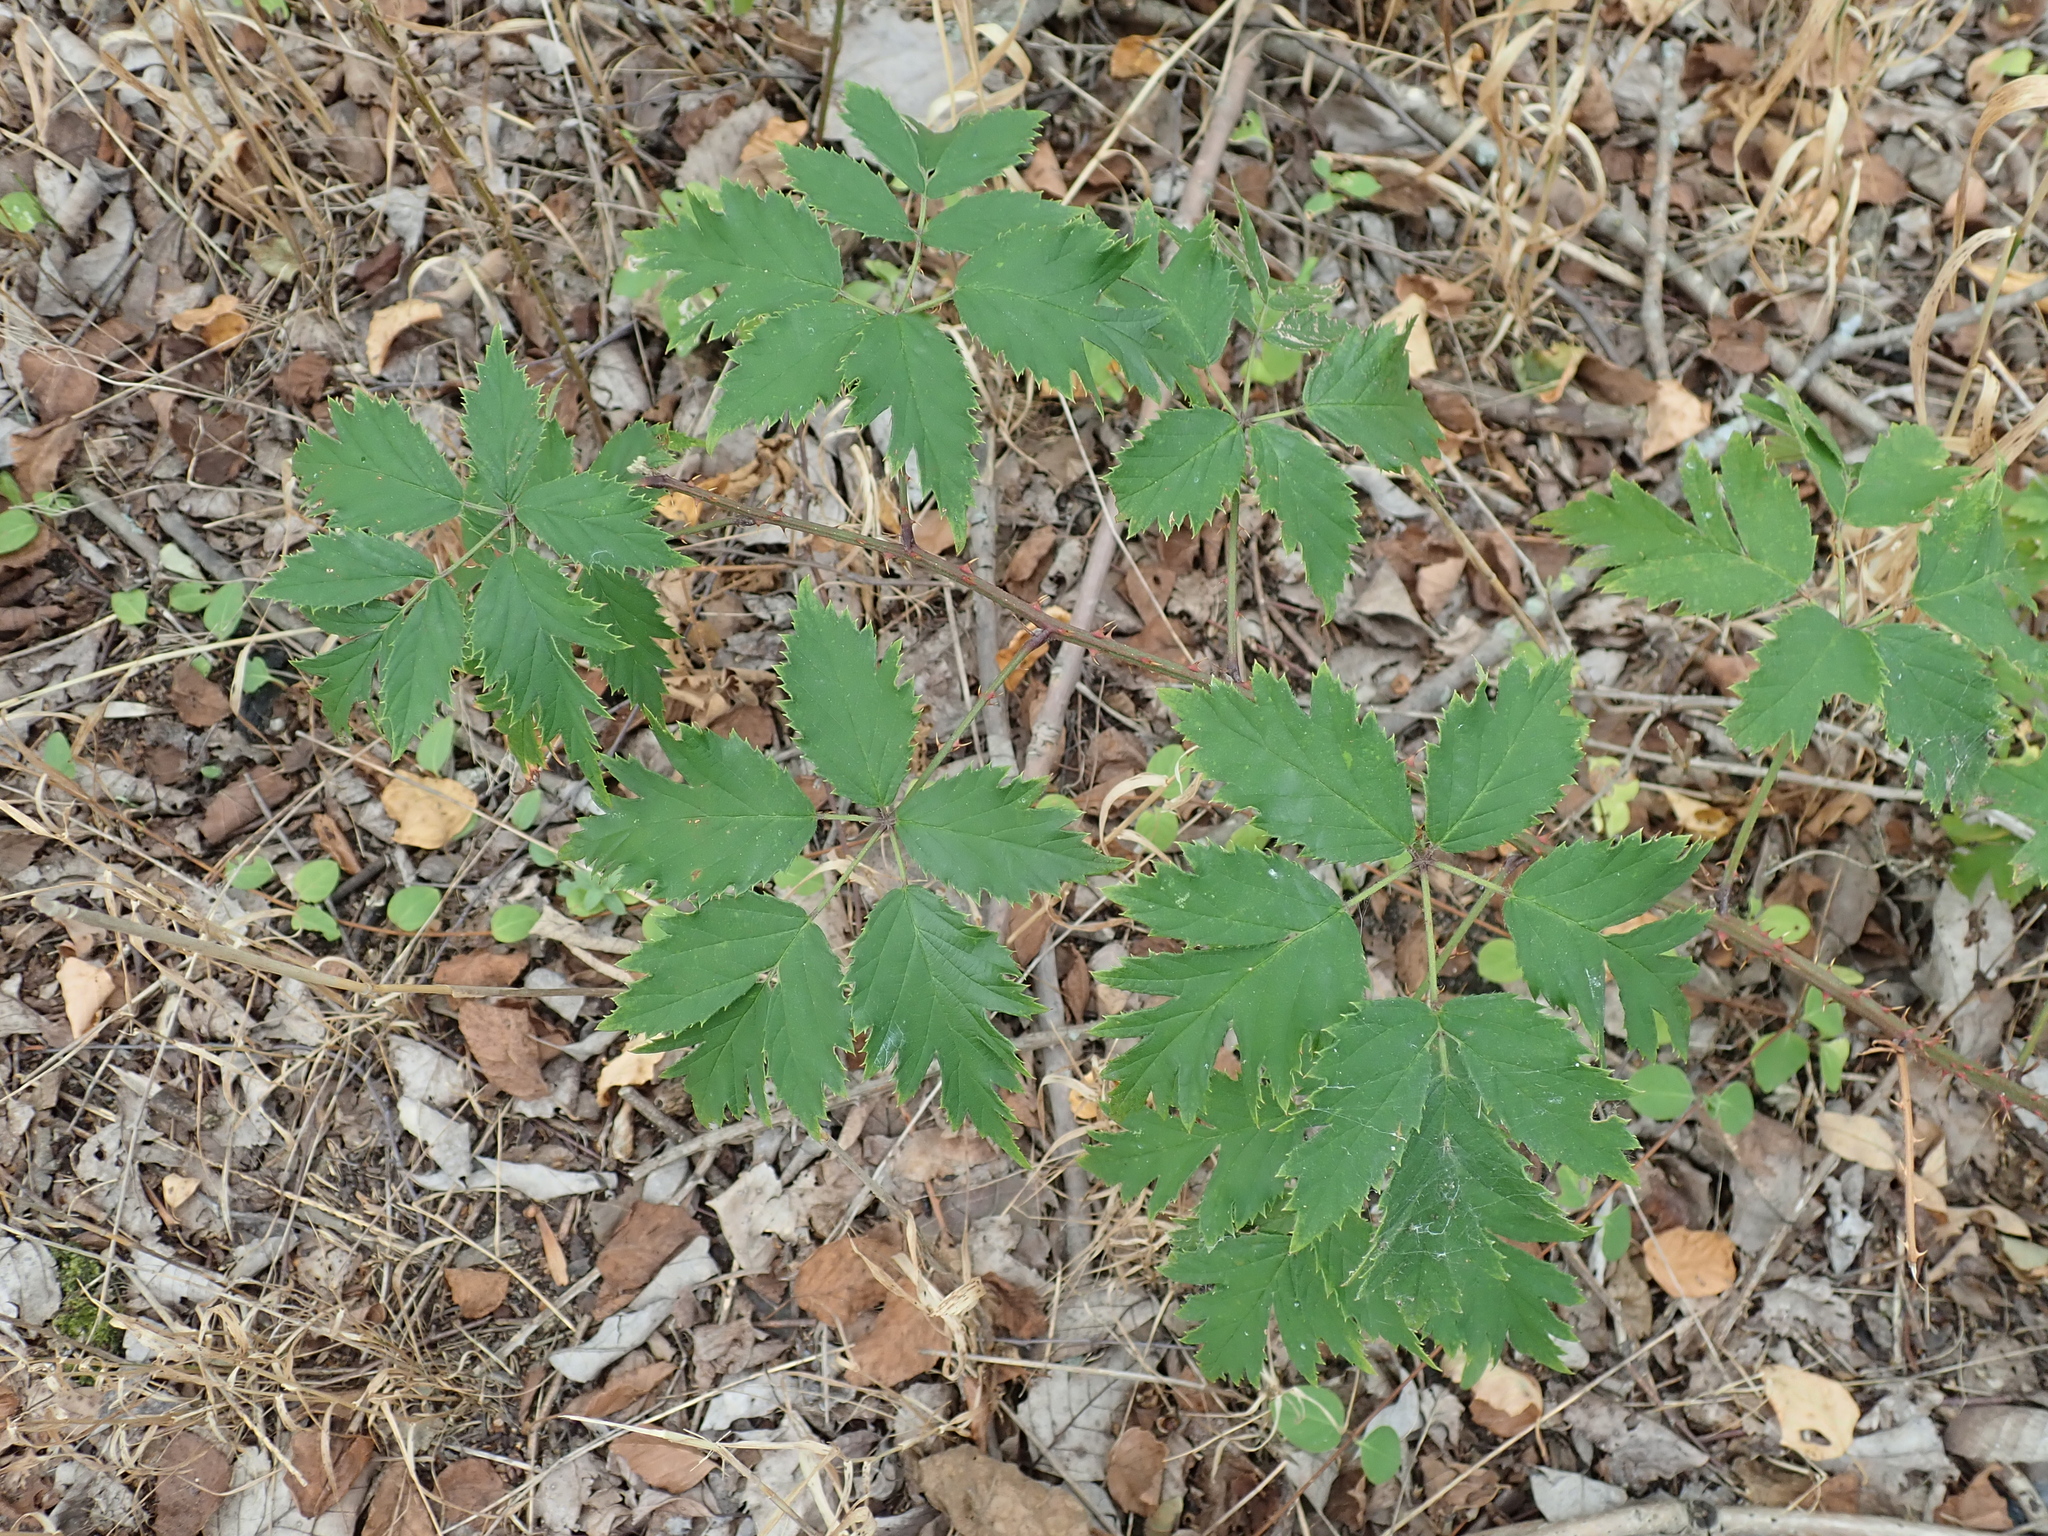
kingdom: Plantae
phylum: Tracheophyta
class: Magnoliopsida
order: Rosales
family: Rosaceae
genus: Rubus
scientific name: Rubus laciniatus
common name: Evergreen blackberry
